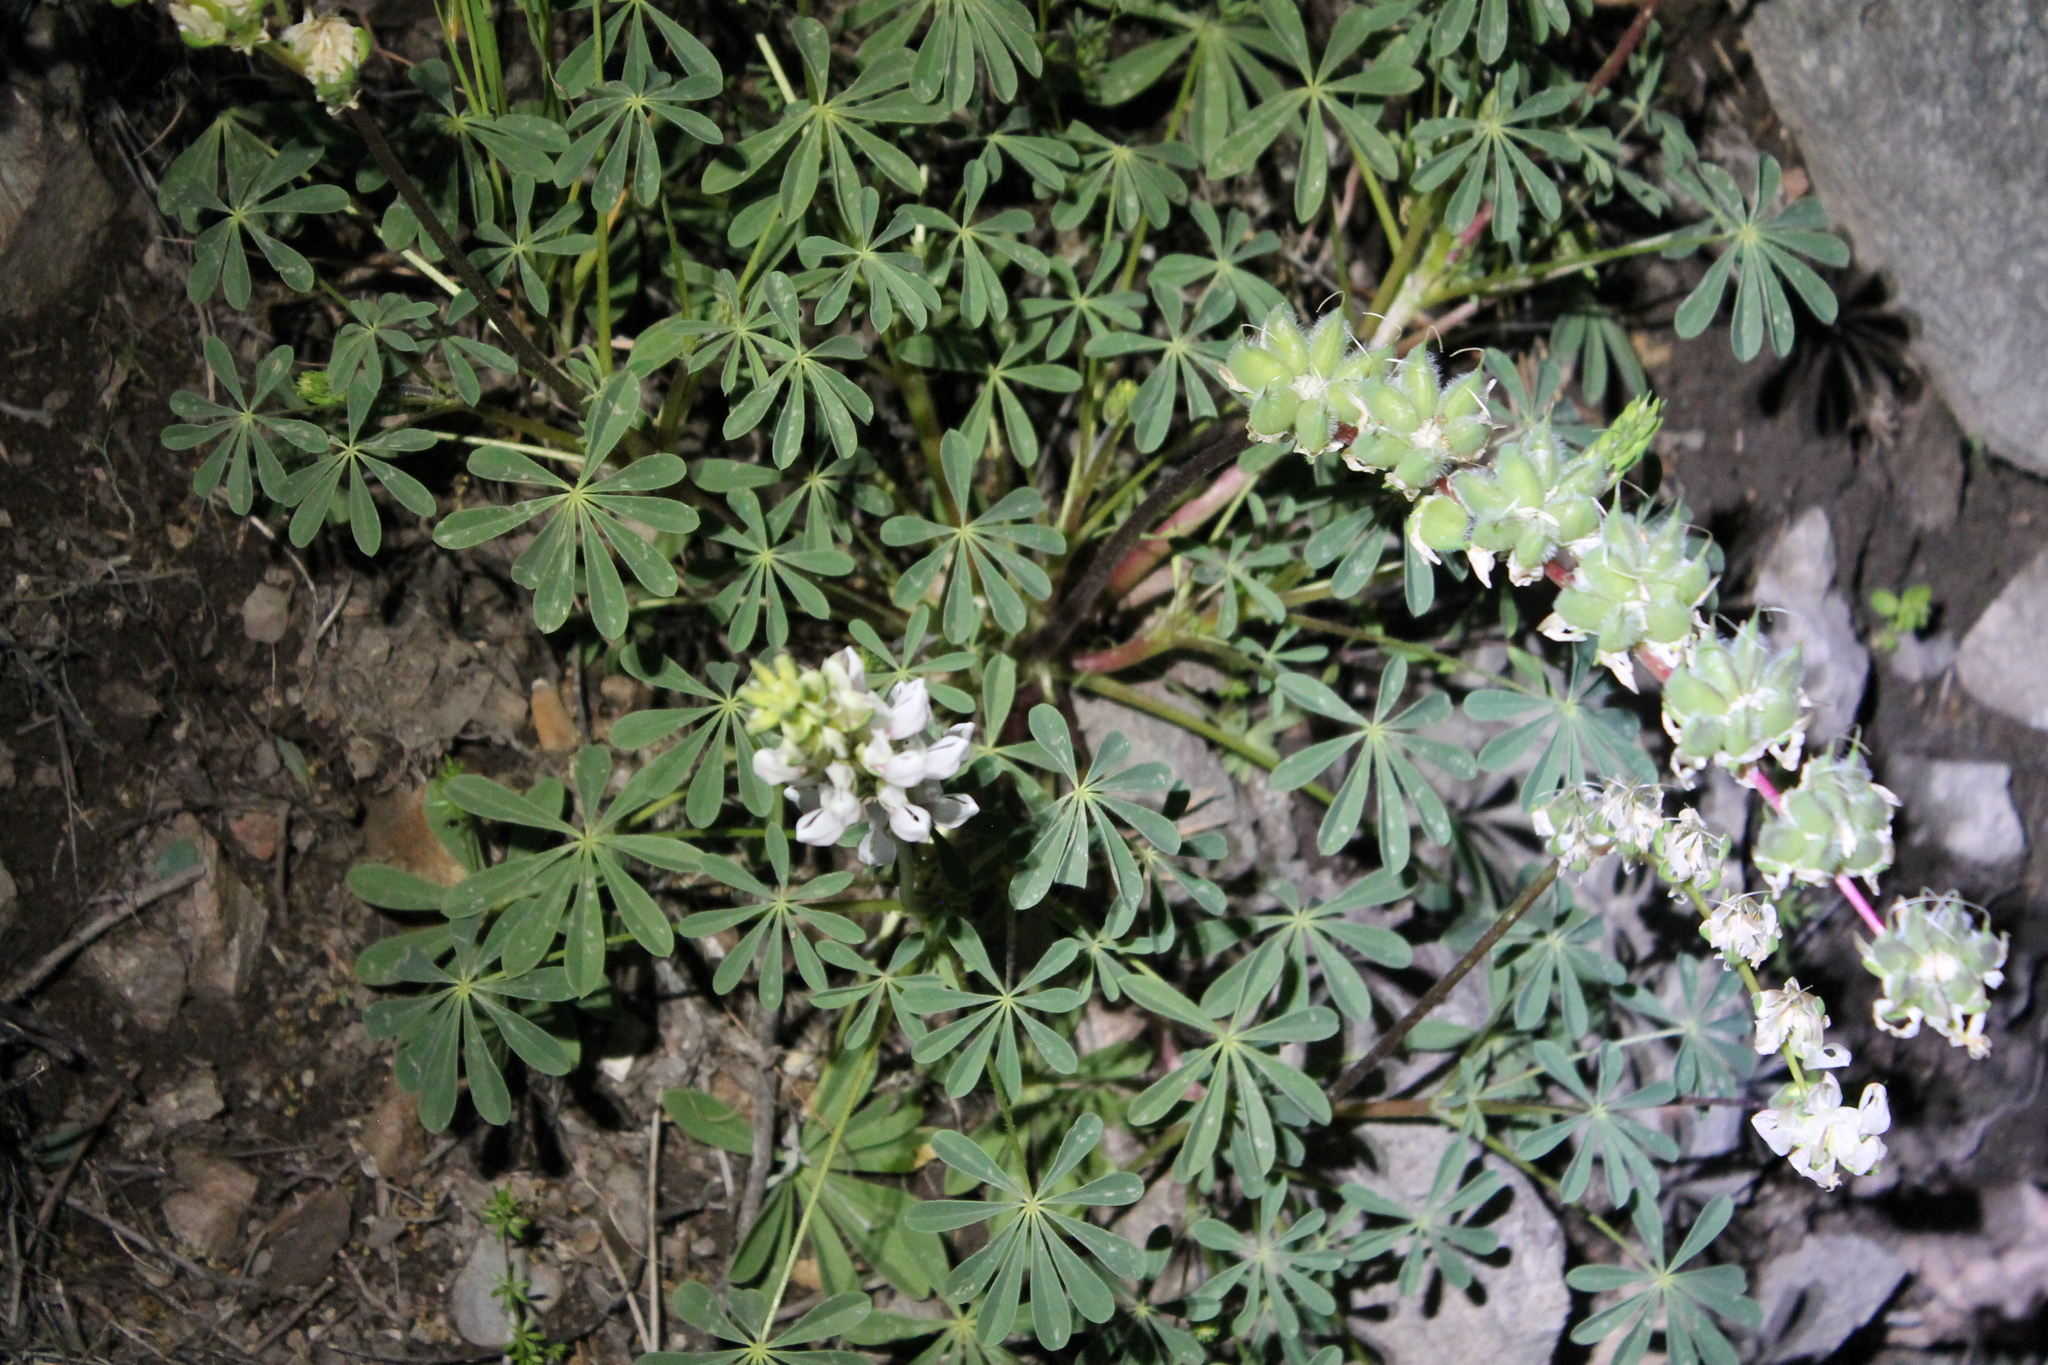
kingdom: Plantae
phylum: Tracheophyta
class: Magnoliopsida
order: Fabales
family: Fabaceae
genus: Lupinus
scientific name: Lupinus microcarpus
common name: Chick lupine
